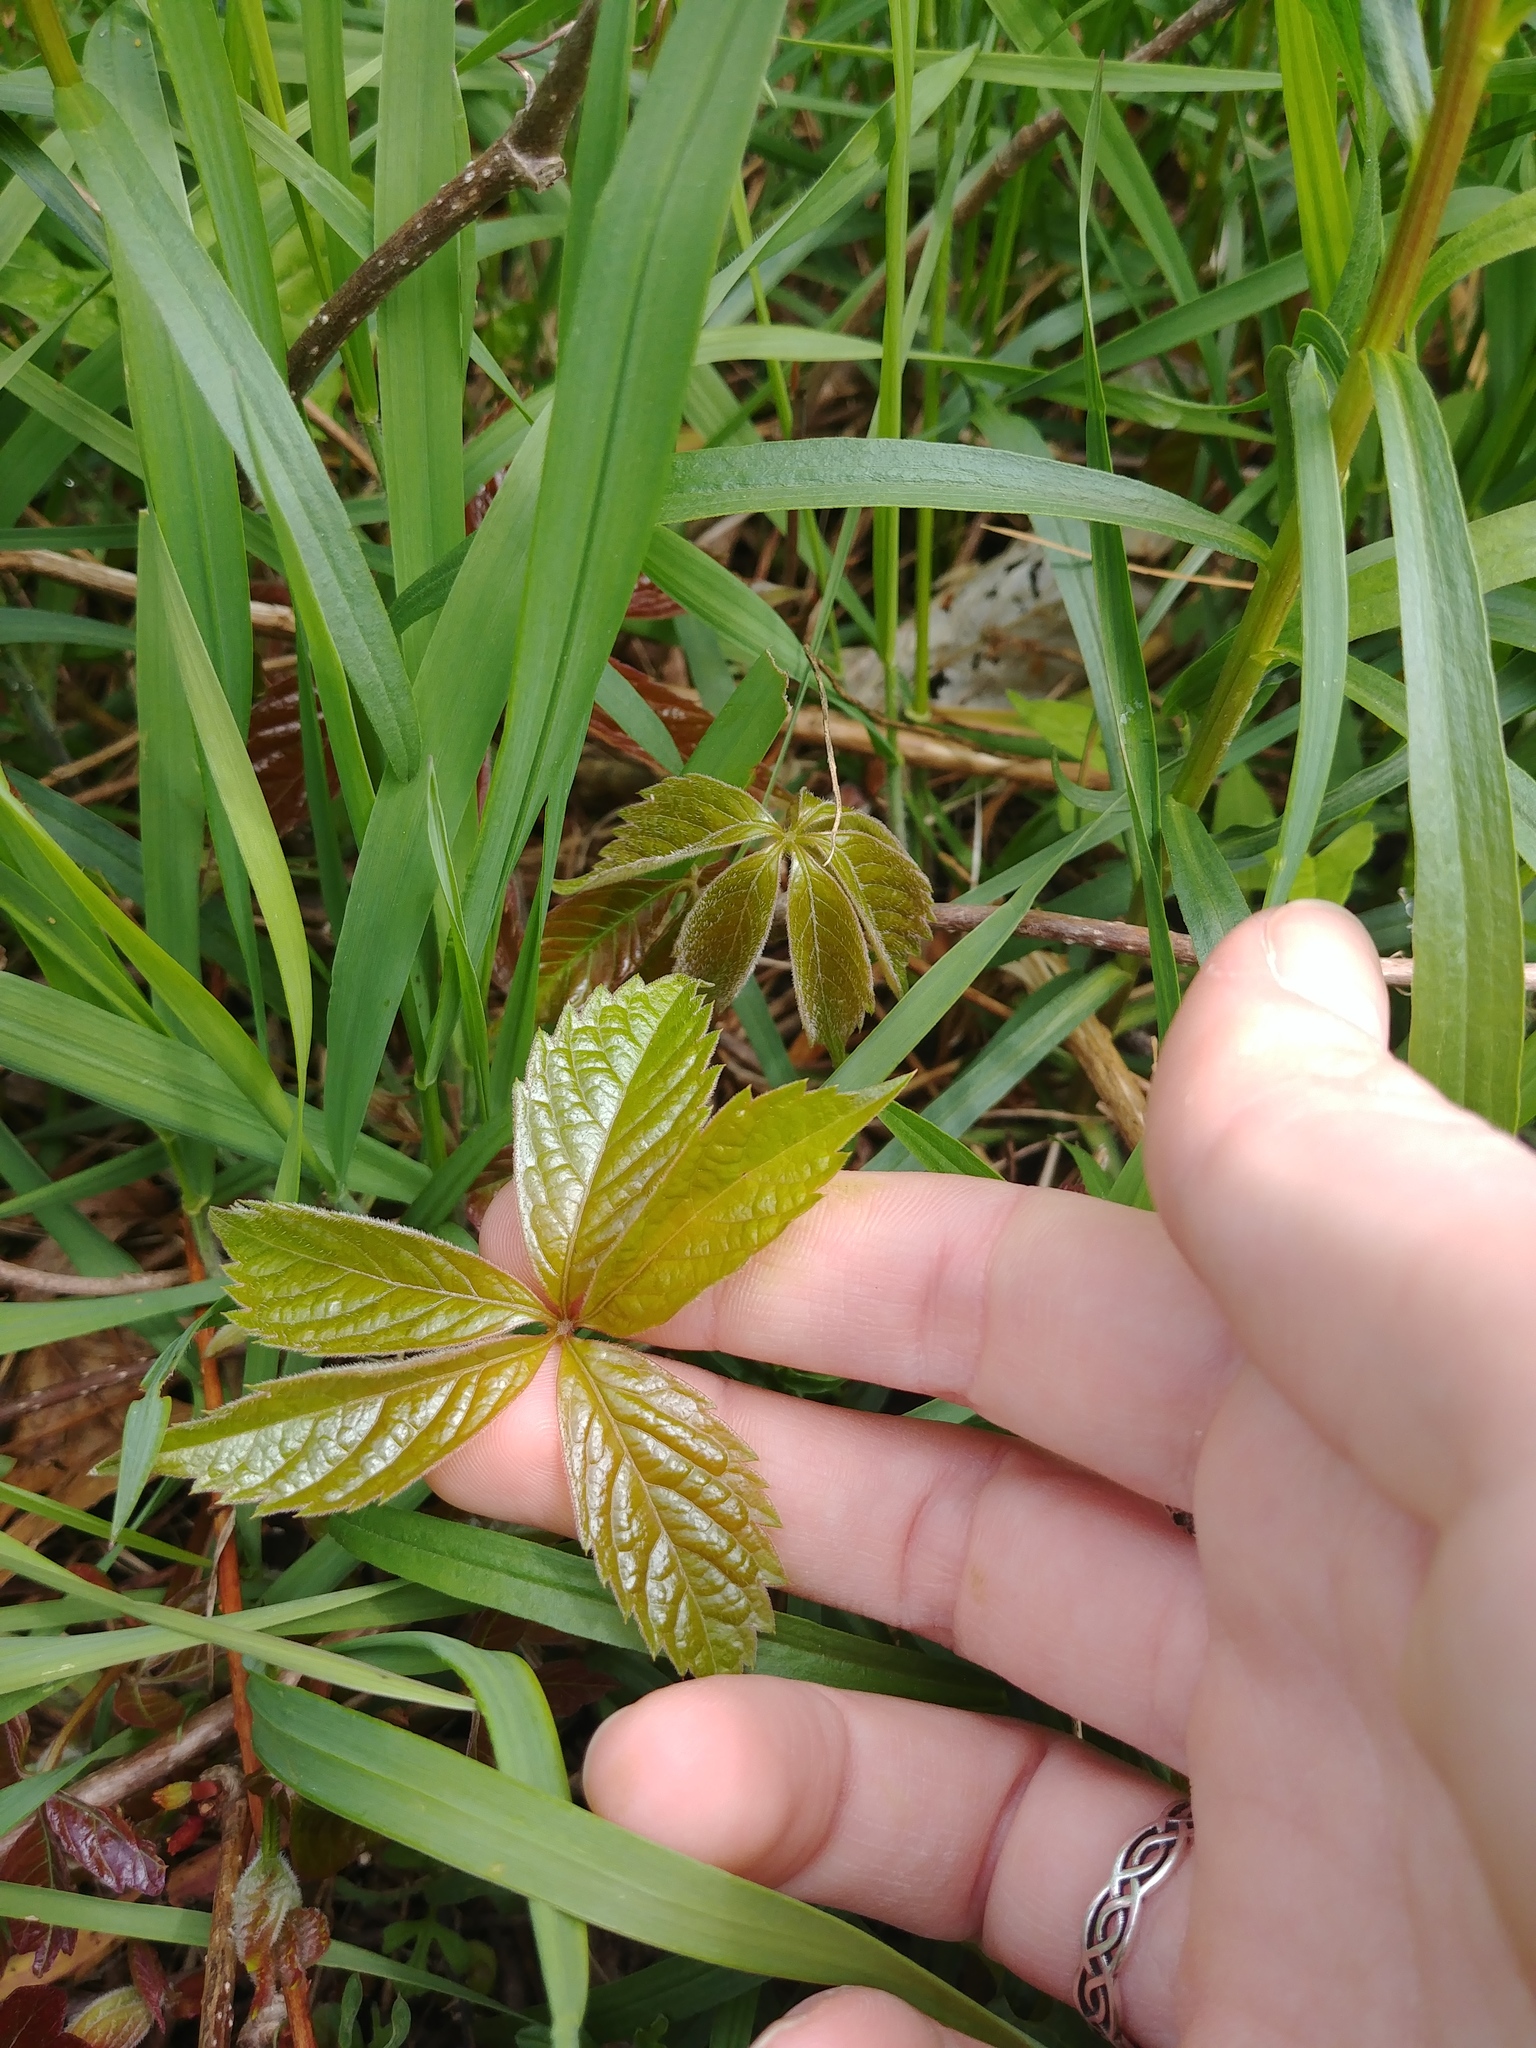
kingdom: Plantae
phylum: Tracheophyta
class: Magnoliopsida
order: Vitales
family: Vitaceae
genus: Parthenocissus
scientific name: Parthenocissus quinquefolia
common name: Virginia-creeper
